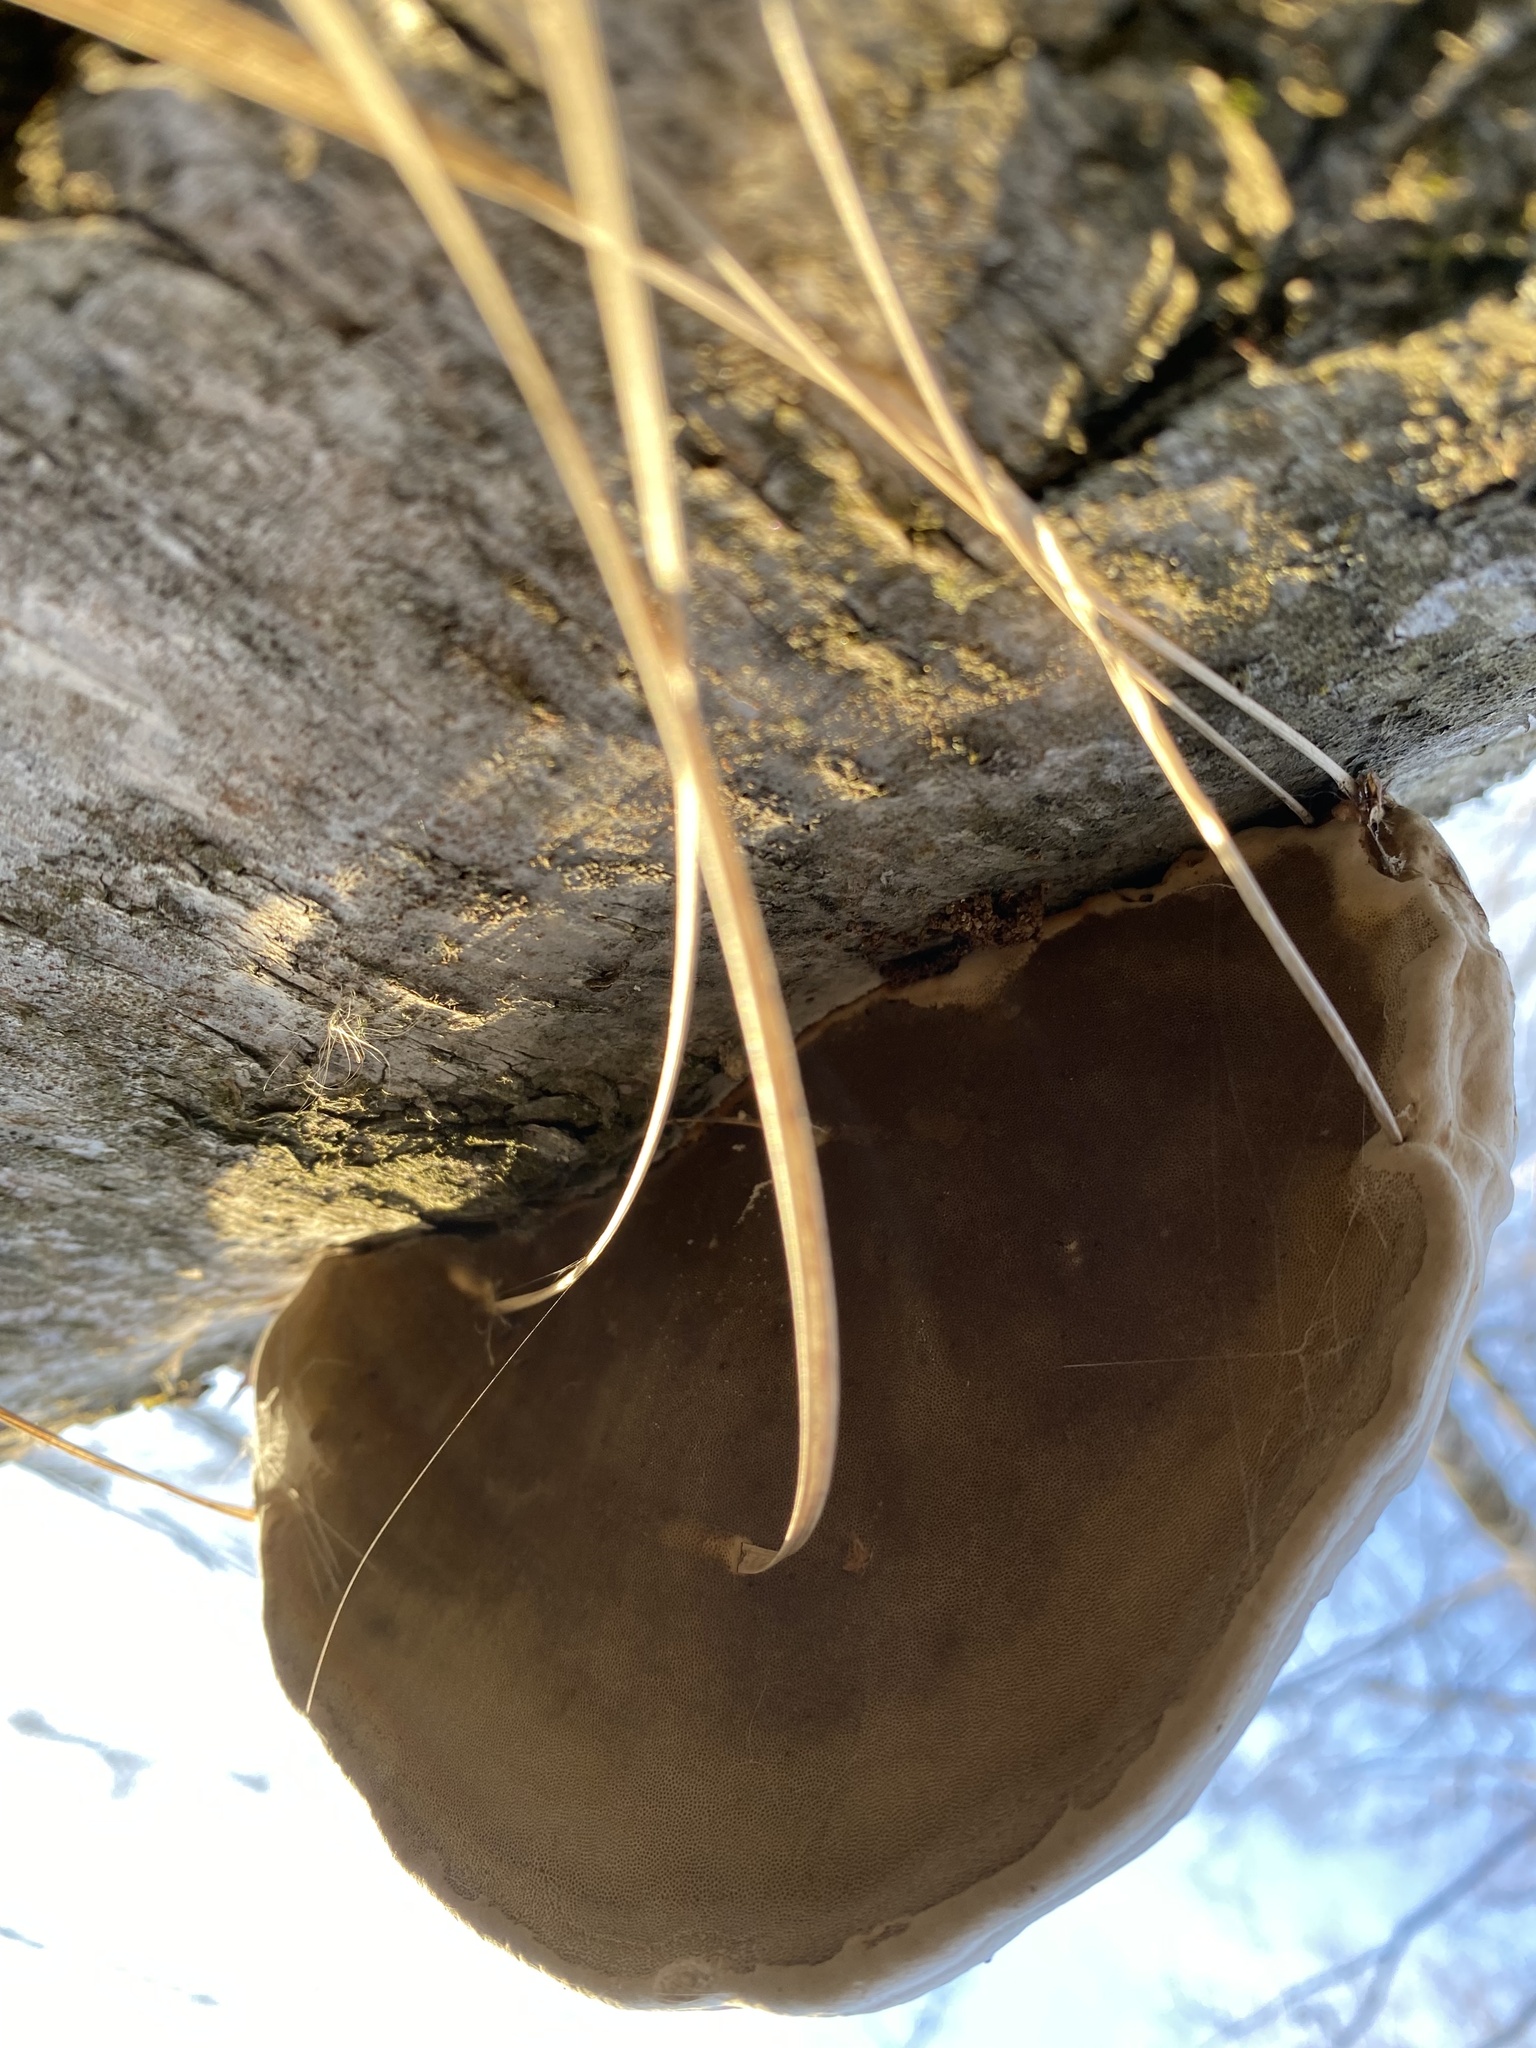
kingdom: Fungi
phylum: Basidiomycota
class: Agaricomycetes
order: Polyporales
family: Polyporaceae
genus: Fomes
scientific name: Fomes fomentarius
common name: Hoof fungus
